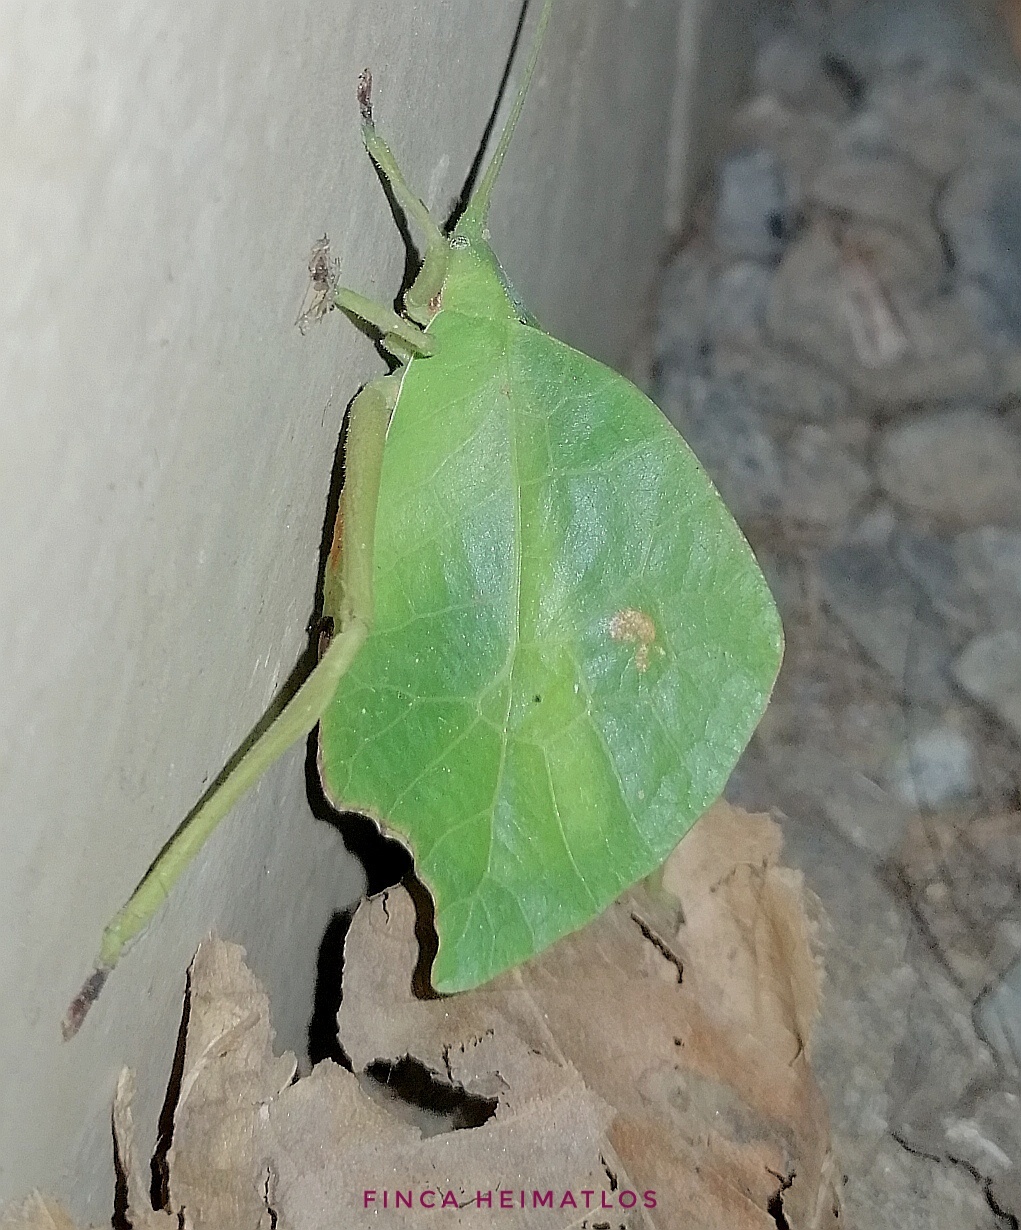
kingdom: Animalia
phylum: Arthropoda
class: Insecta
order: Orthoptera
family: Tettigoniidae
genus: Typophyllum
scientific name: Typophyllum mortuifolium
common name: Common little walking leaf
